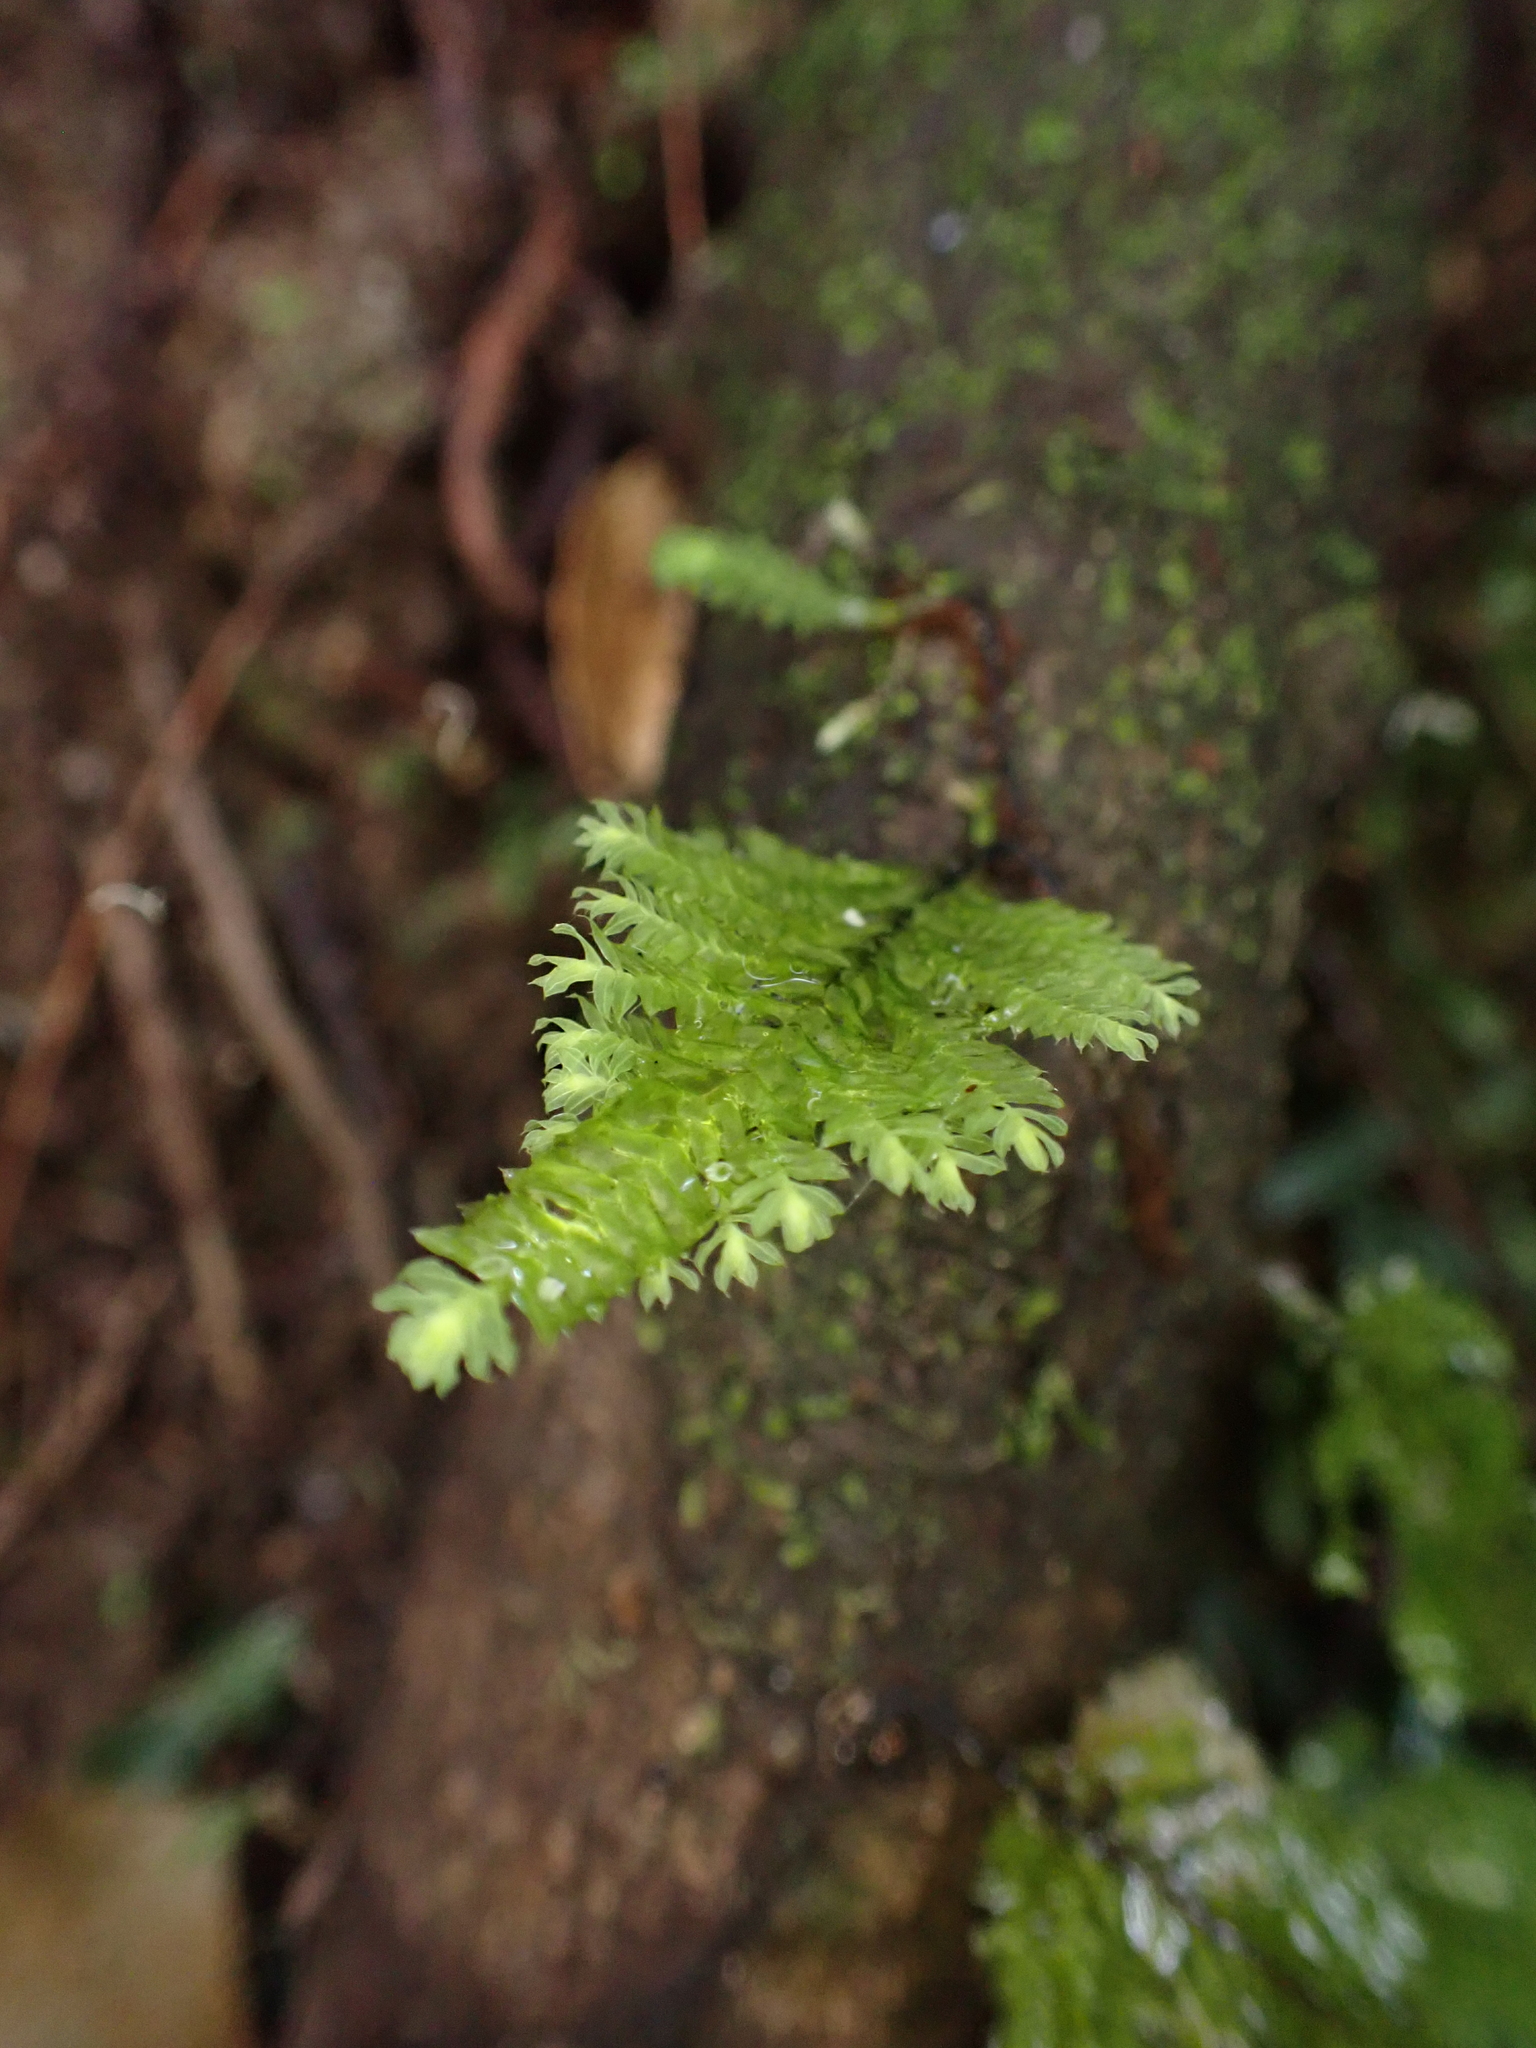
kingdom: Plantae
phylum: Bryophyta
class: Bryopsida
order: Hypopterygiales
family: Hypopterygiaceae
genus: Lopidium
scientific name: Lopidium concinnum
